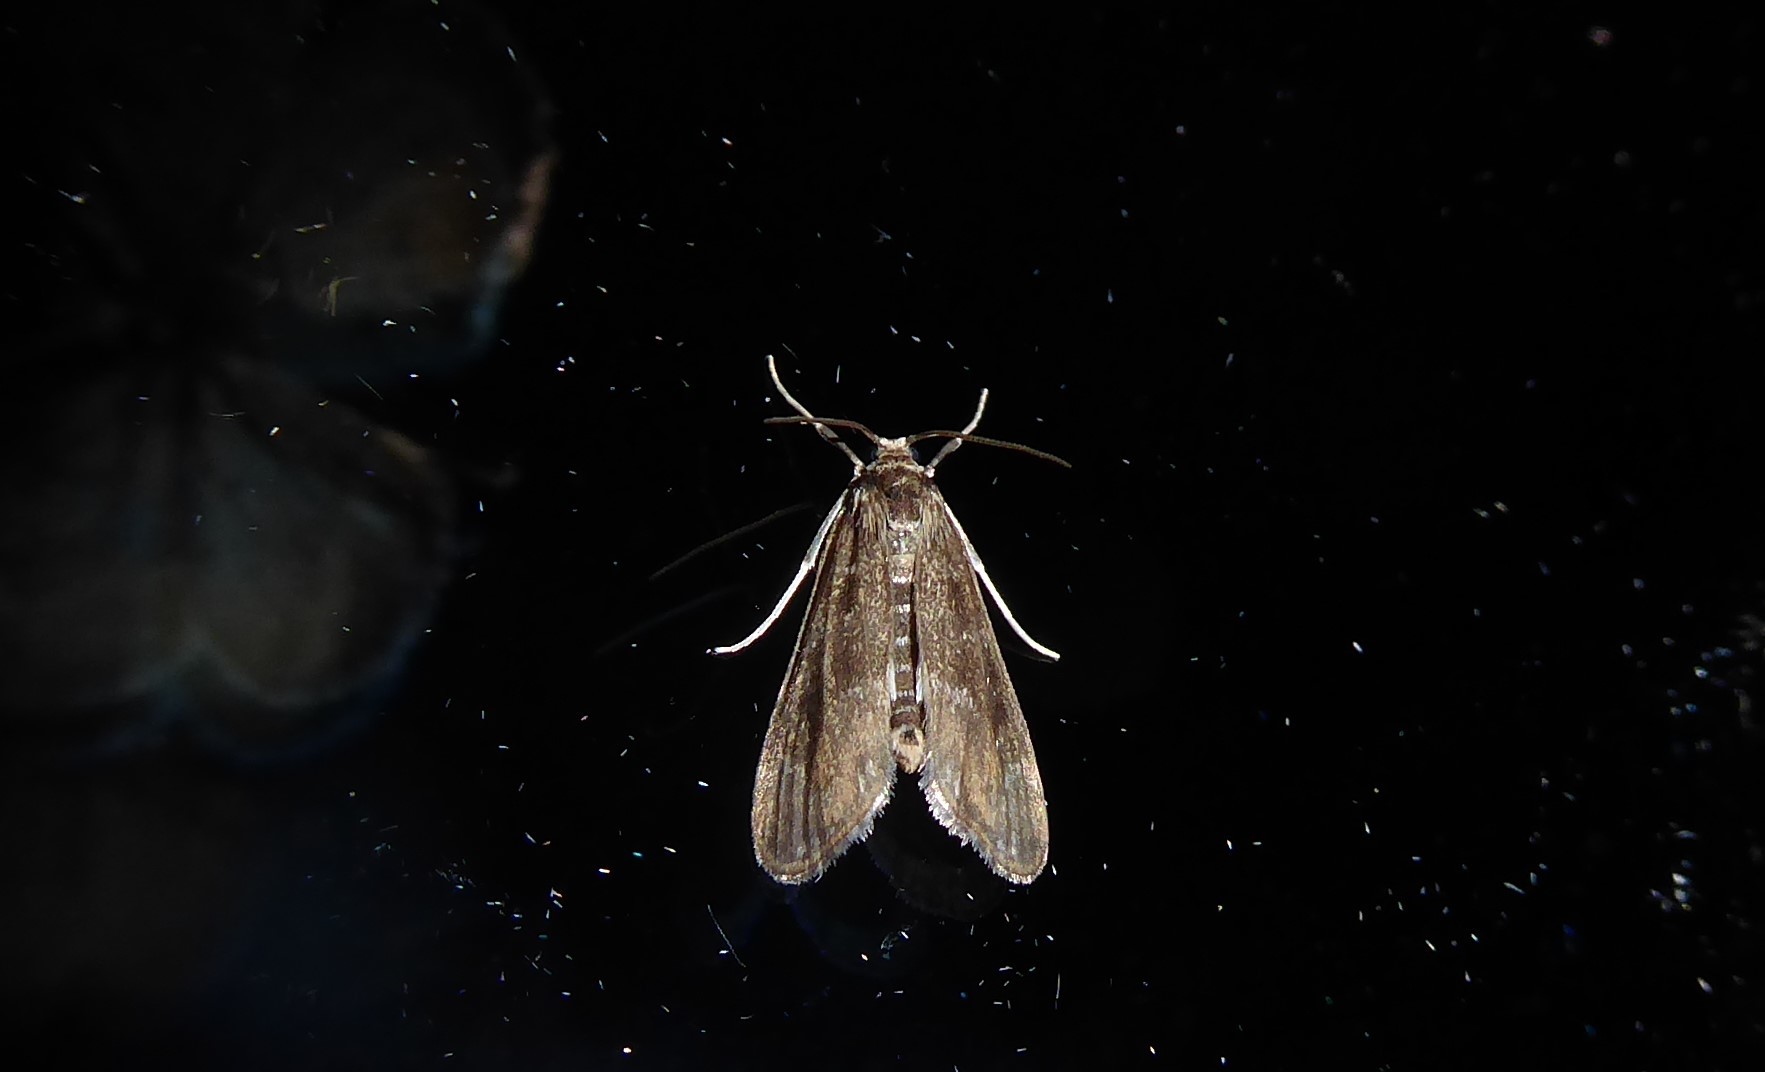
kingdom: Animalia
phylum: Arthropoda
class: Insecta
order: Lepidoptera
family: Crambidae
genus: Hygraula
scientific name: Hygraula nitens
